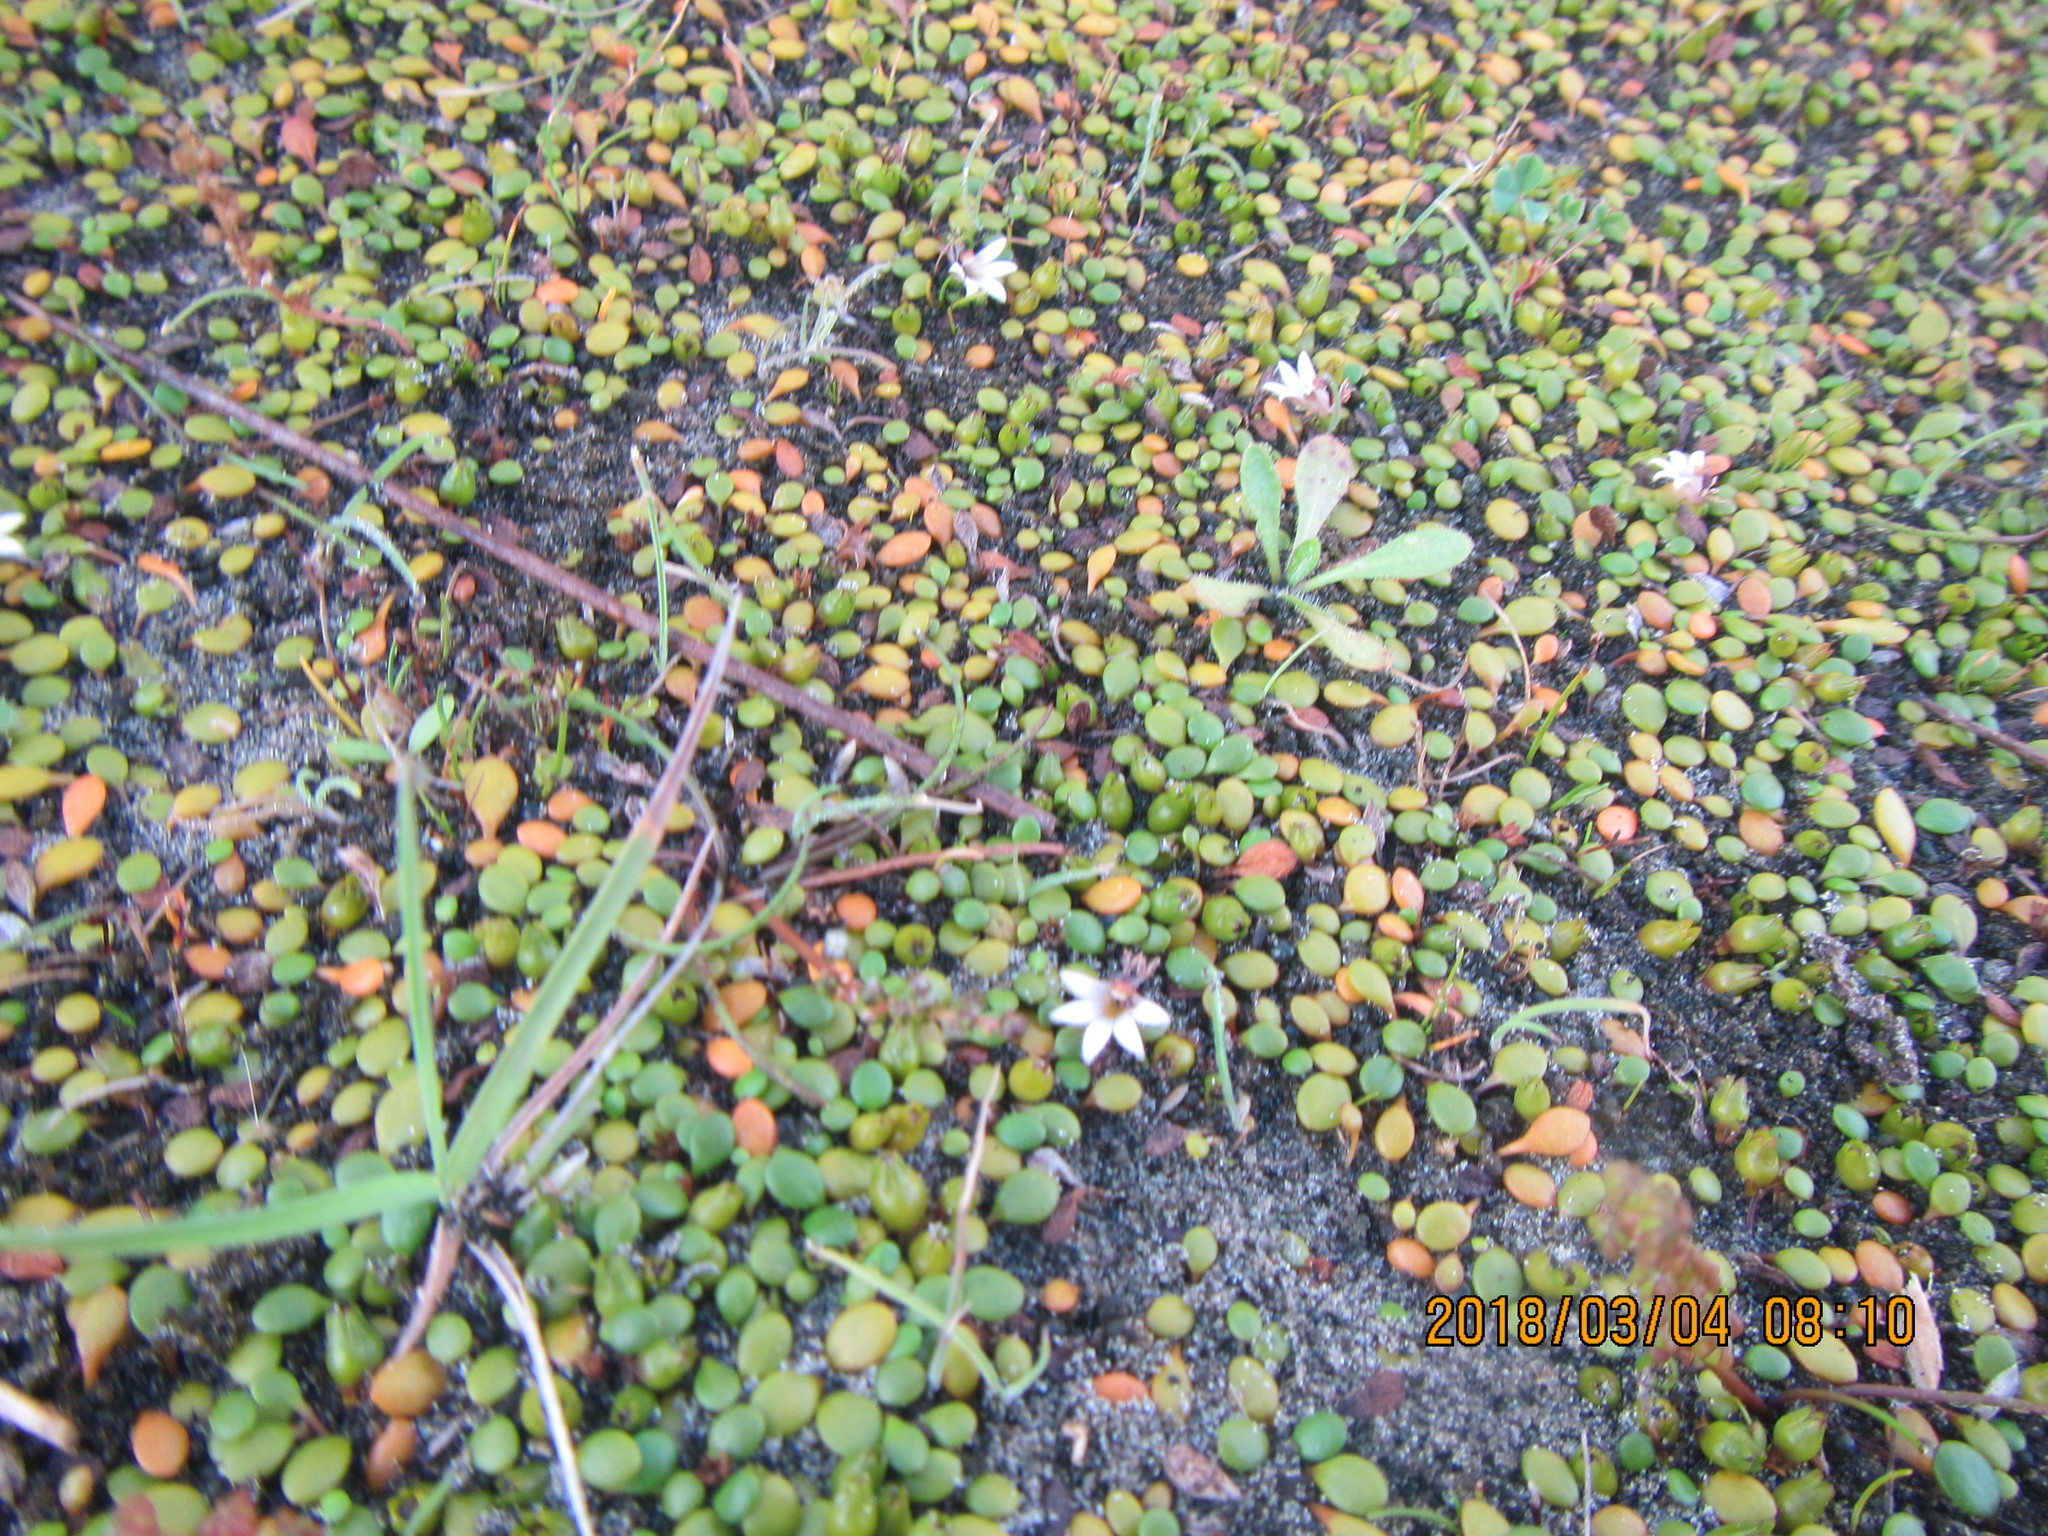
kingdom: Plantae
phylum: Tracheophyta
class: Magnoliopsida
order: Asterales
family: Goodeniaceae
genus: Goodenia
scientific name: Goodenia heenanii
